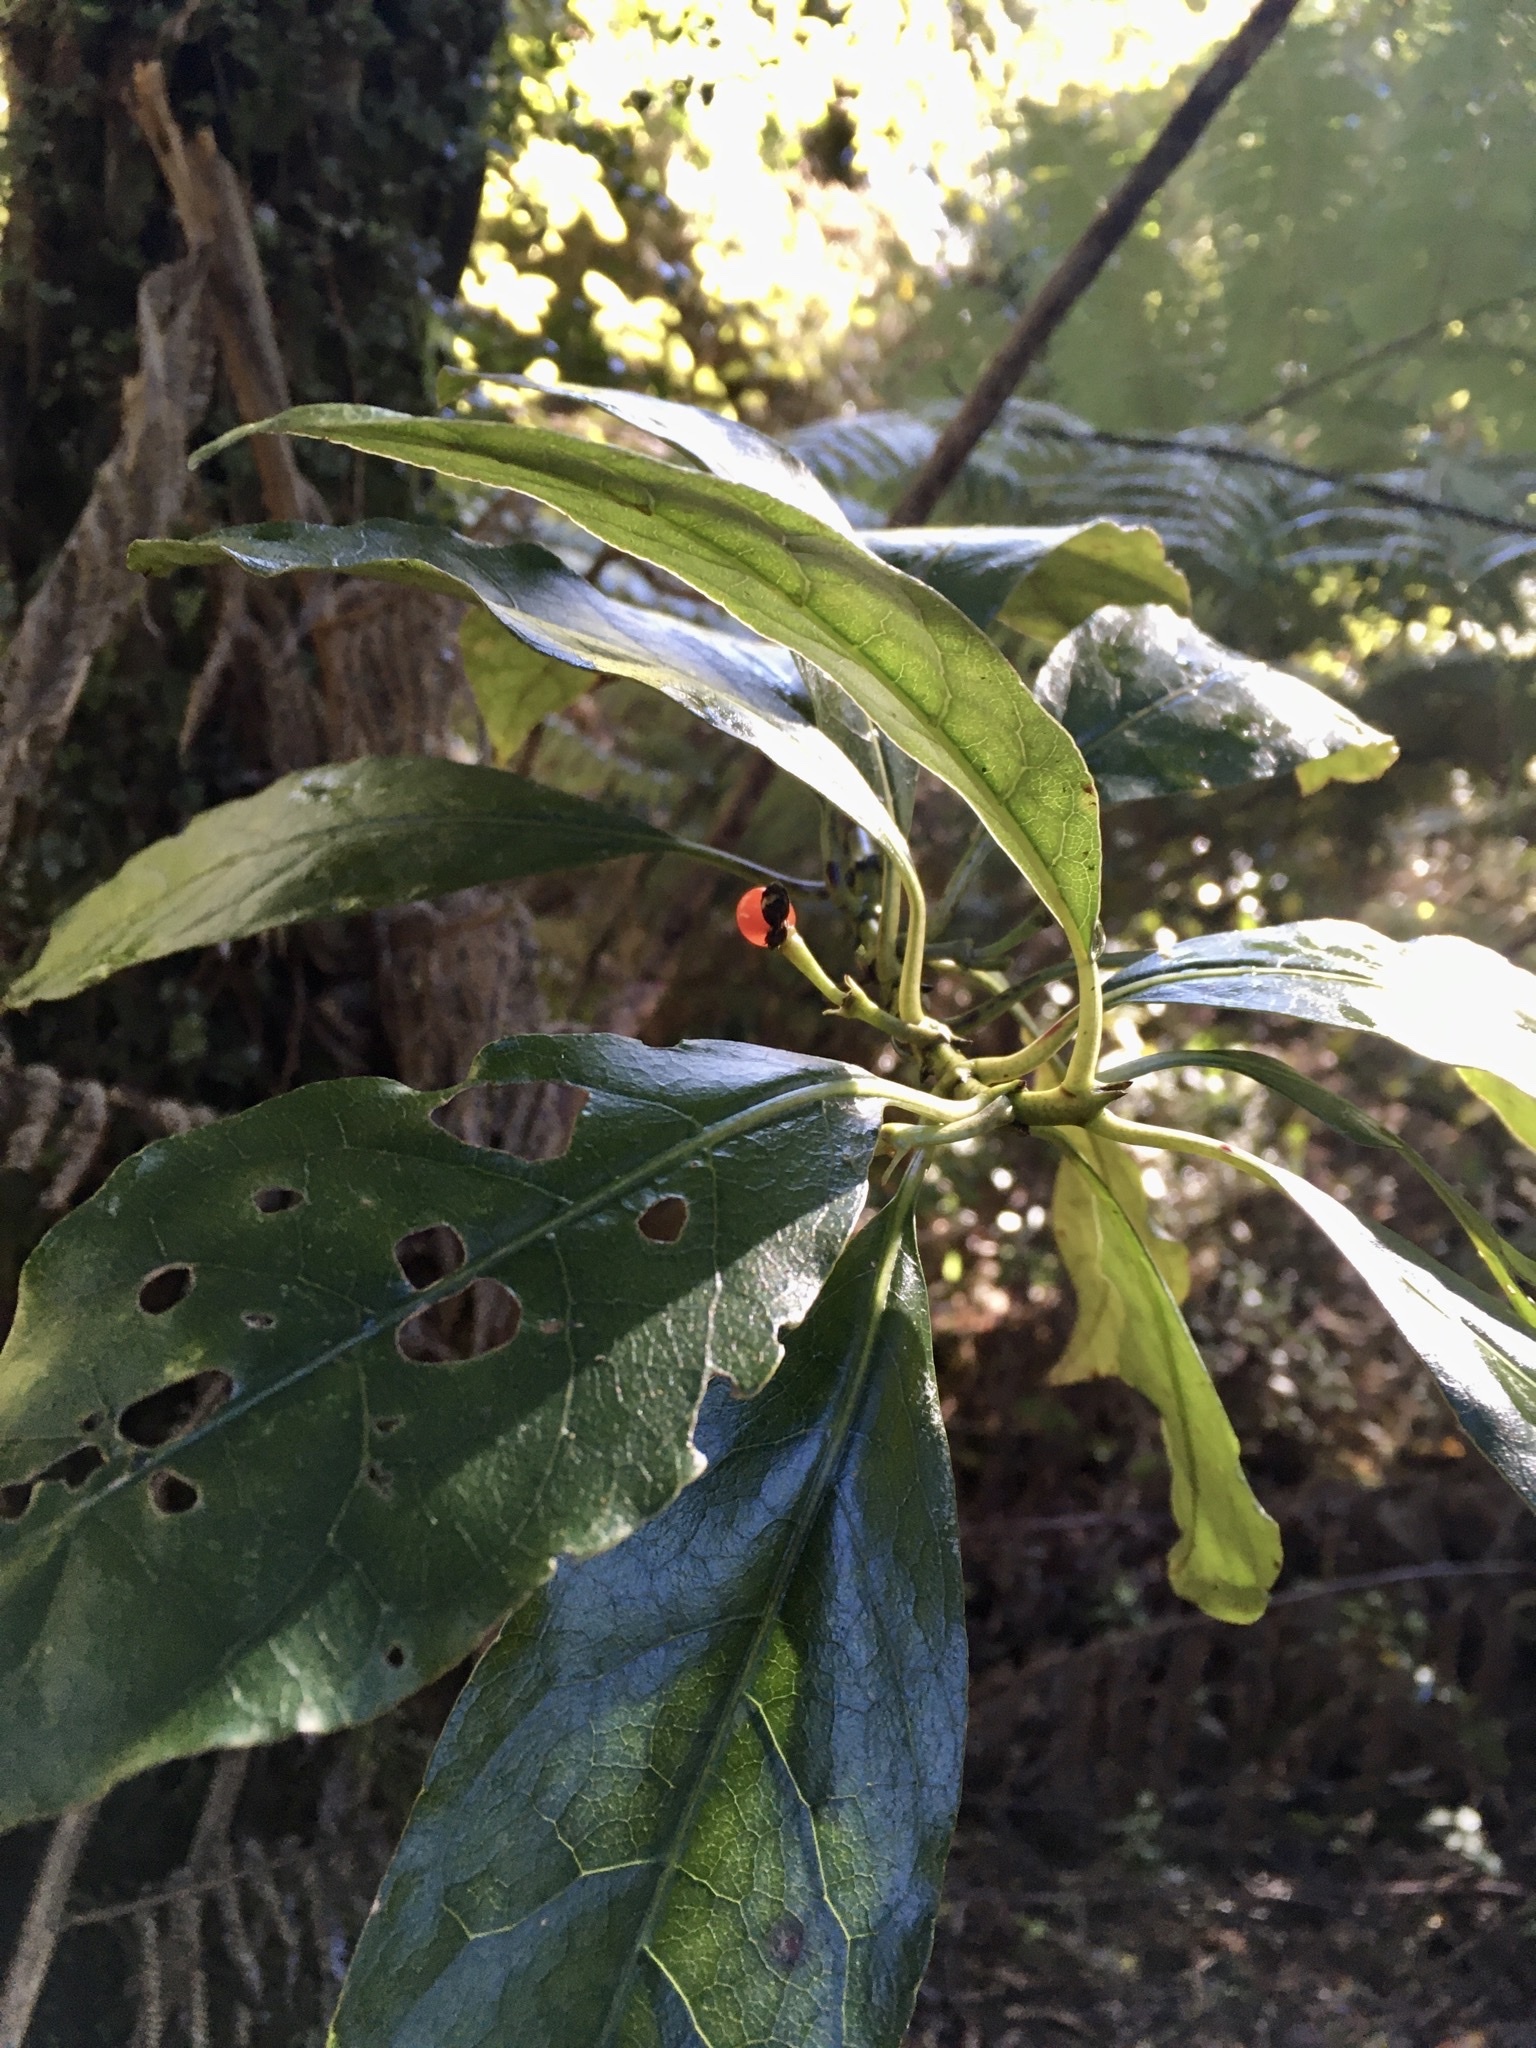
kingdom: Plantae
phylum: Tracheophyta
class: Magnoliopsida
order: Gentianales
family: Rubiaceae
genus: Coprosma
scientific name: Coprosma autumnalis
